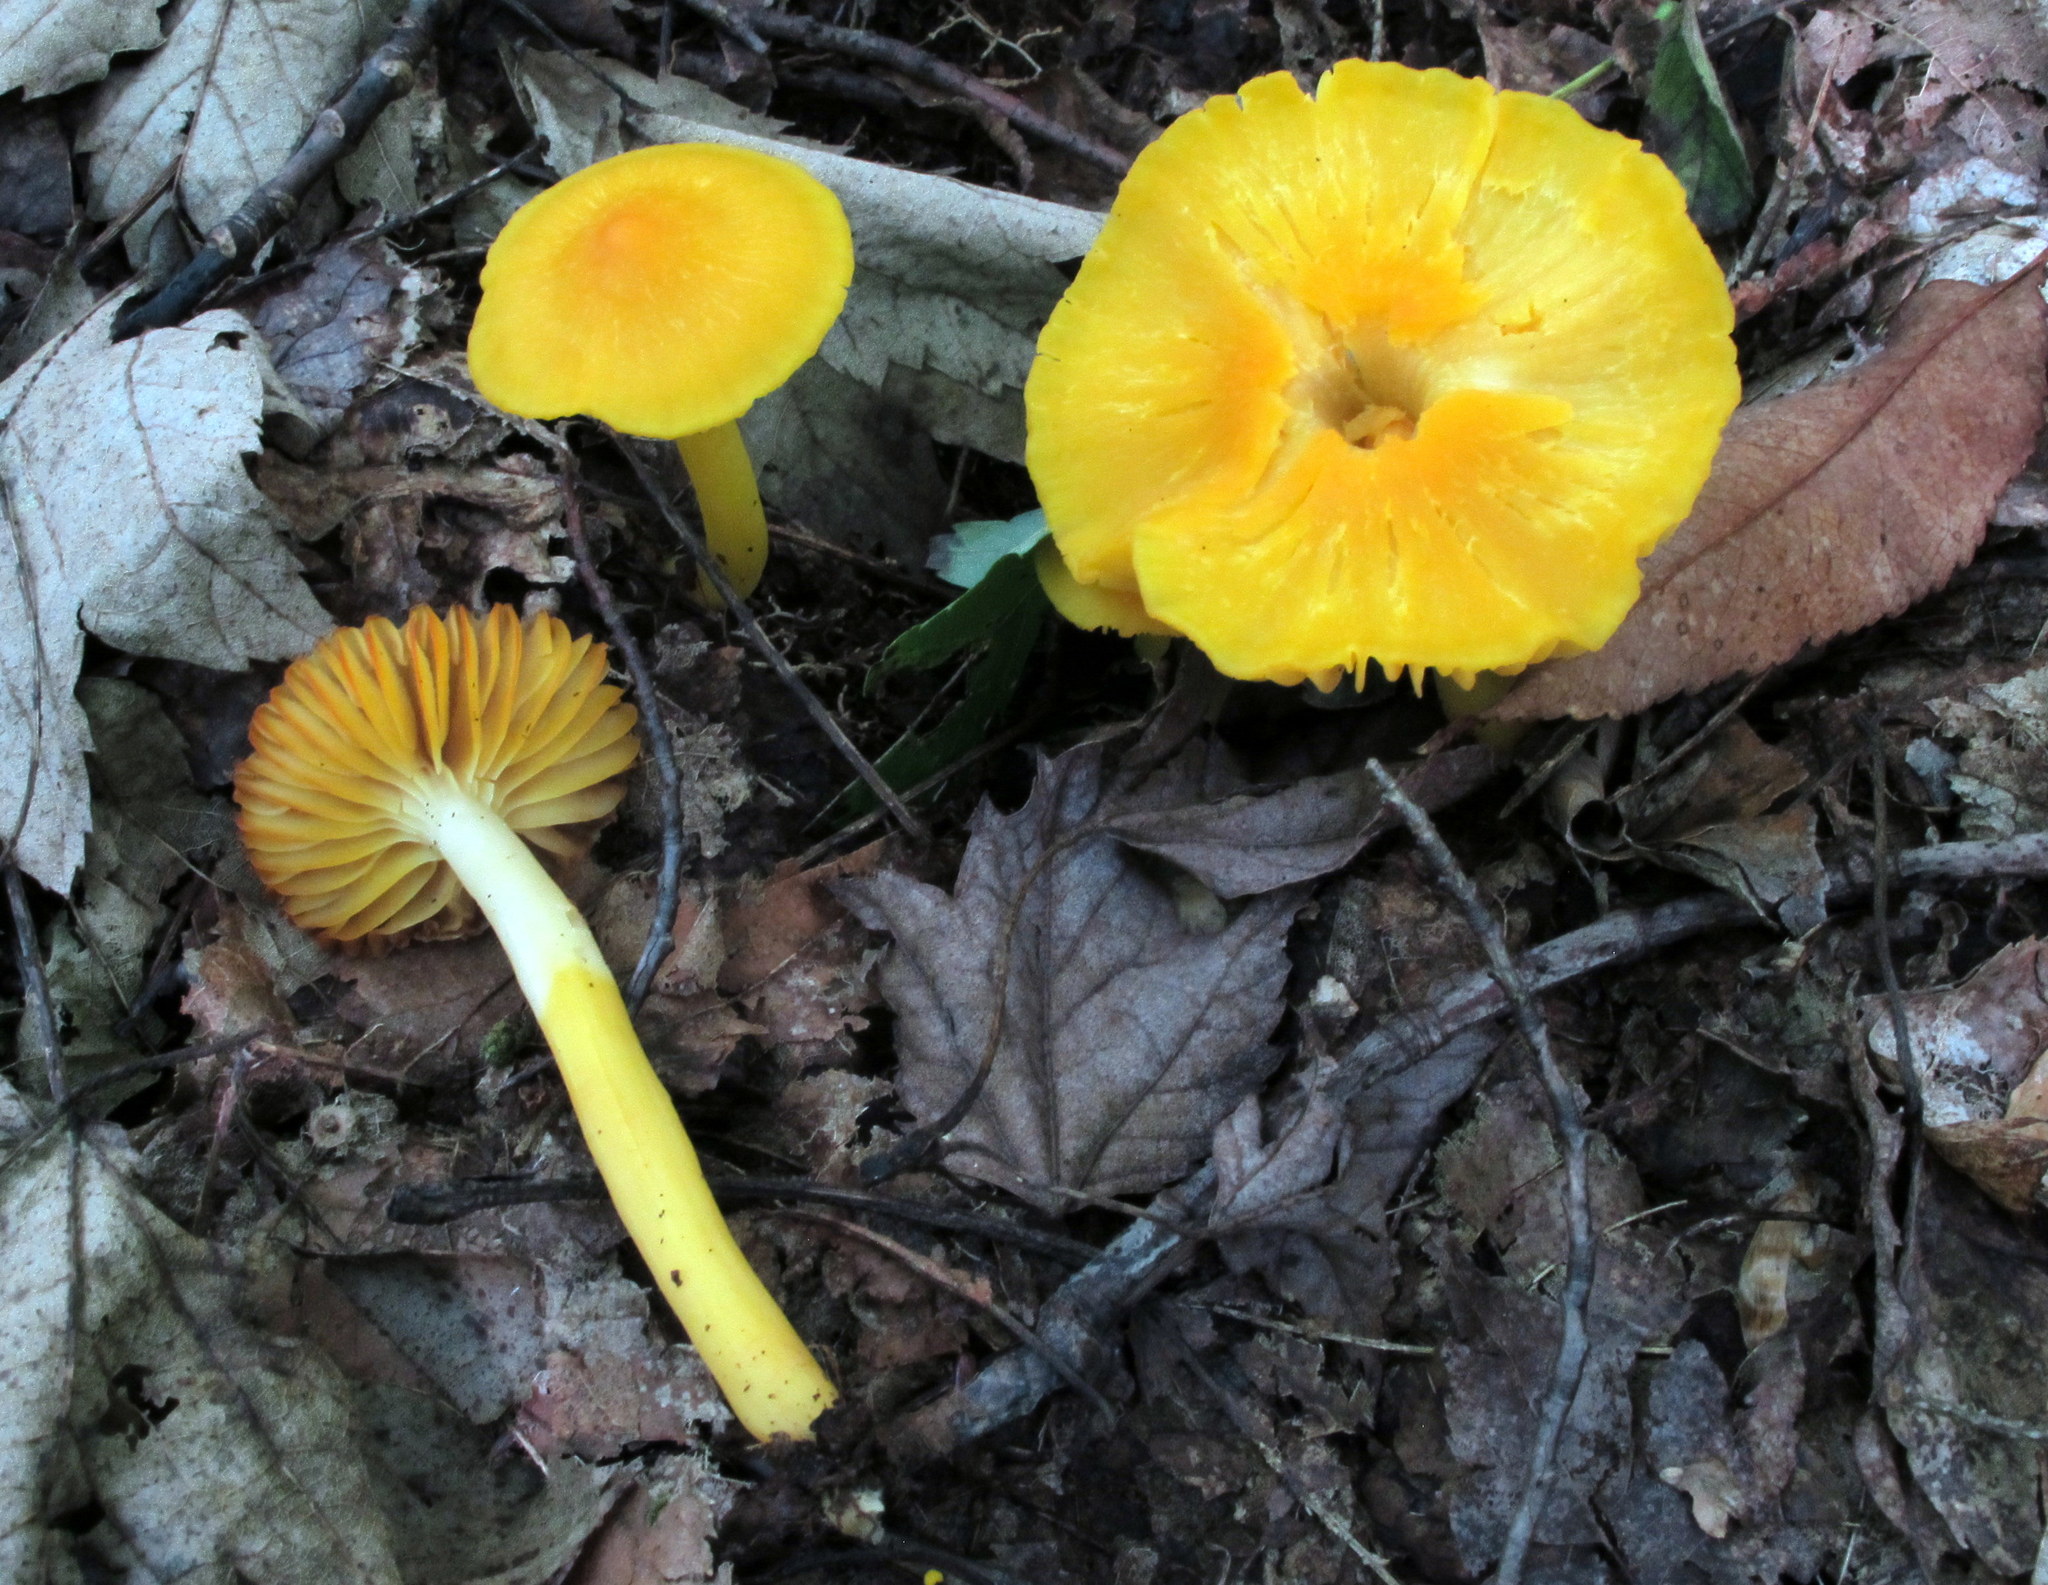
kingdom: Fungi
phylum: Basidiomycota
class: Agaricomycetes
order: Agaricales
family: Hygrophoraceae
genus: Humidicutis
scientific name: Humidicutis marginata
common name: Orange gilled waxcap
